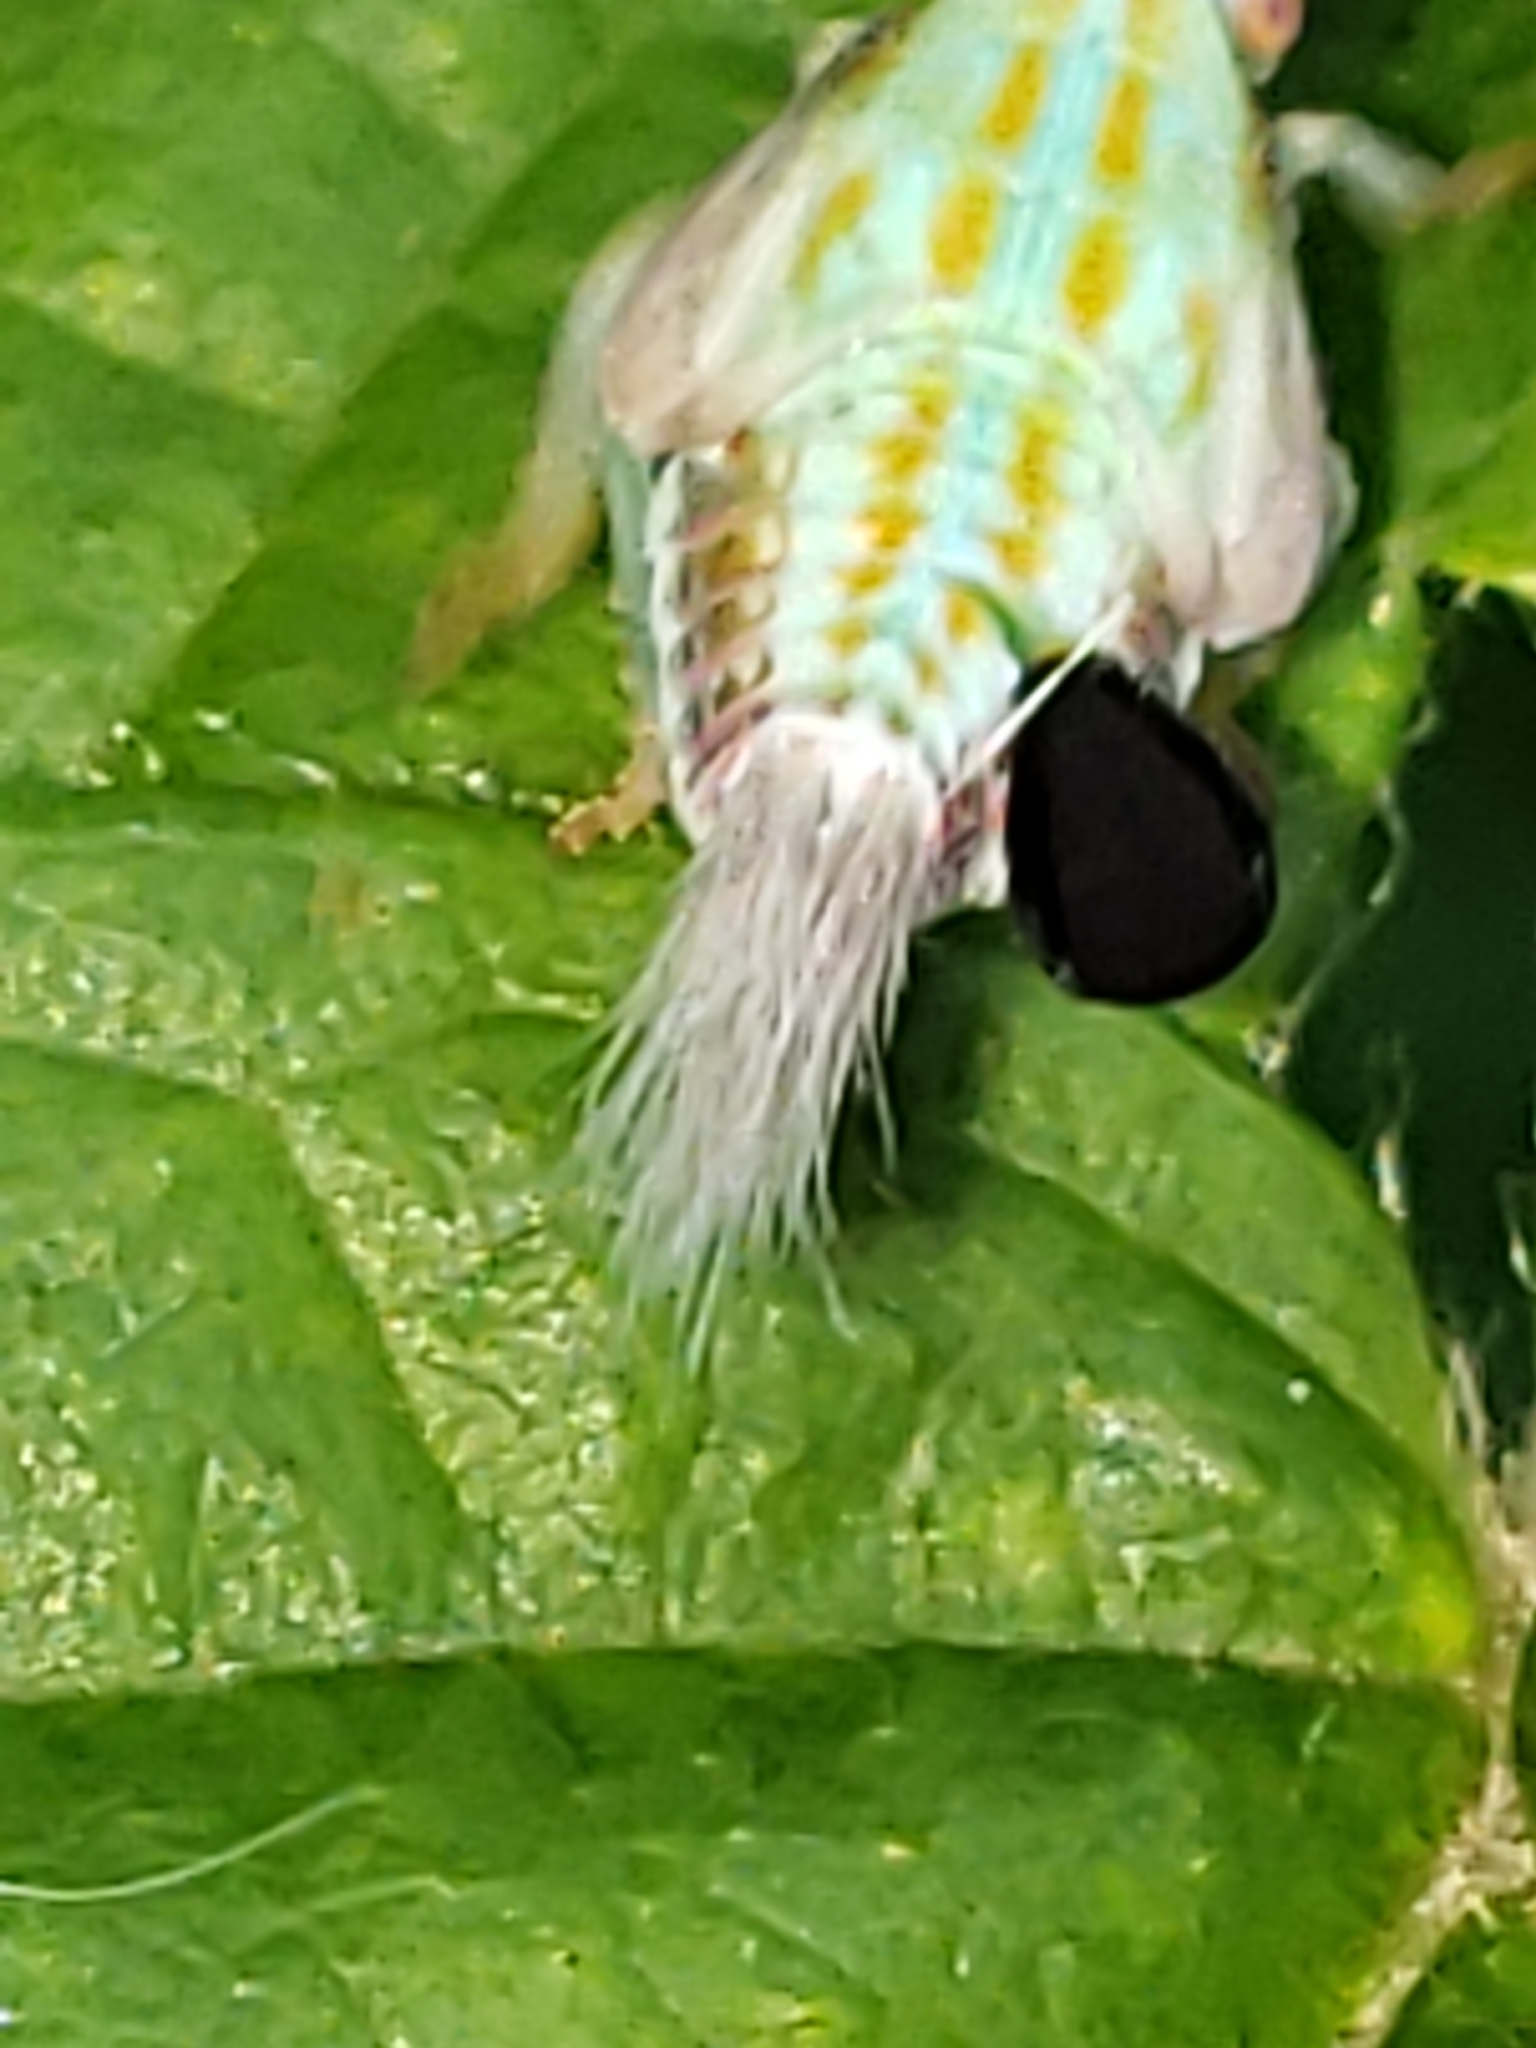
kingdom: Animalia
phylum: Arthropoda
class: Insecta
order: Hemiptera
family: Issidae
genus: Thionia
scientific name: Thionia bullata
